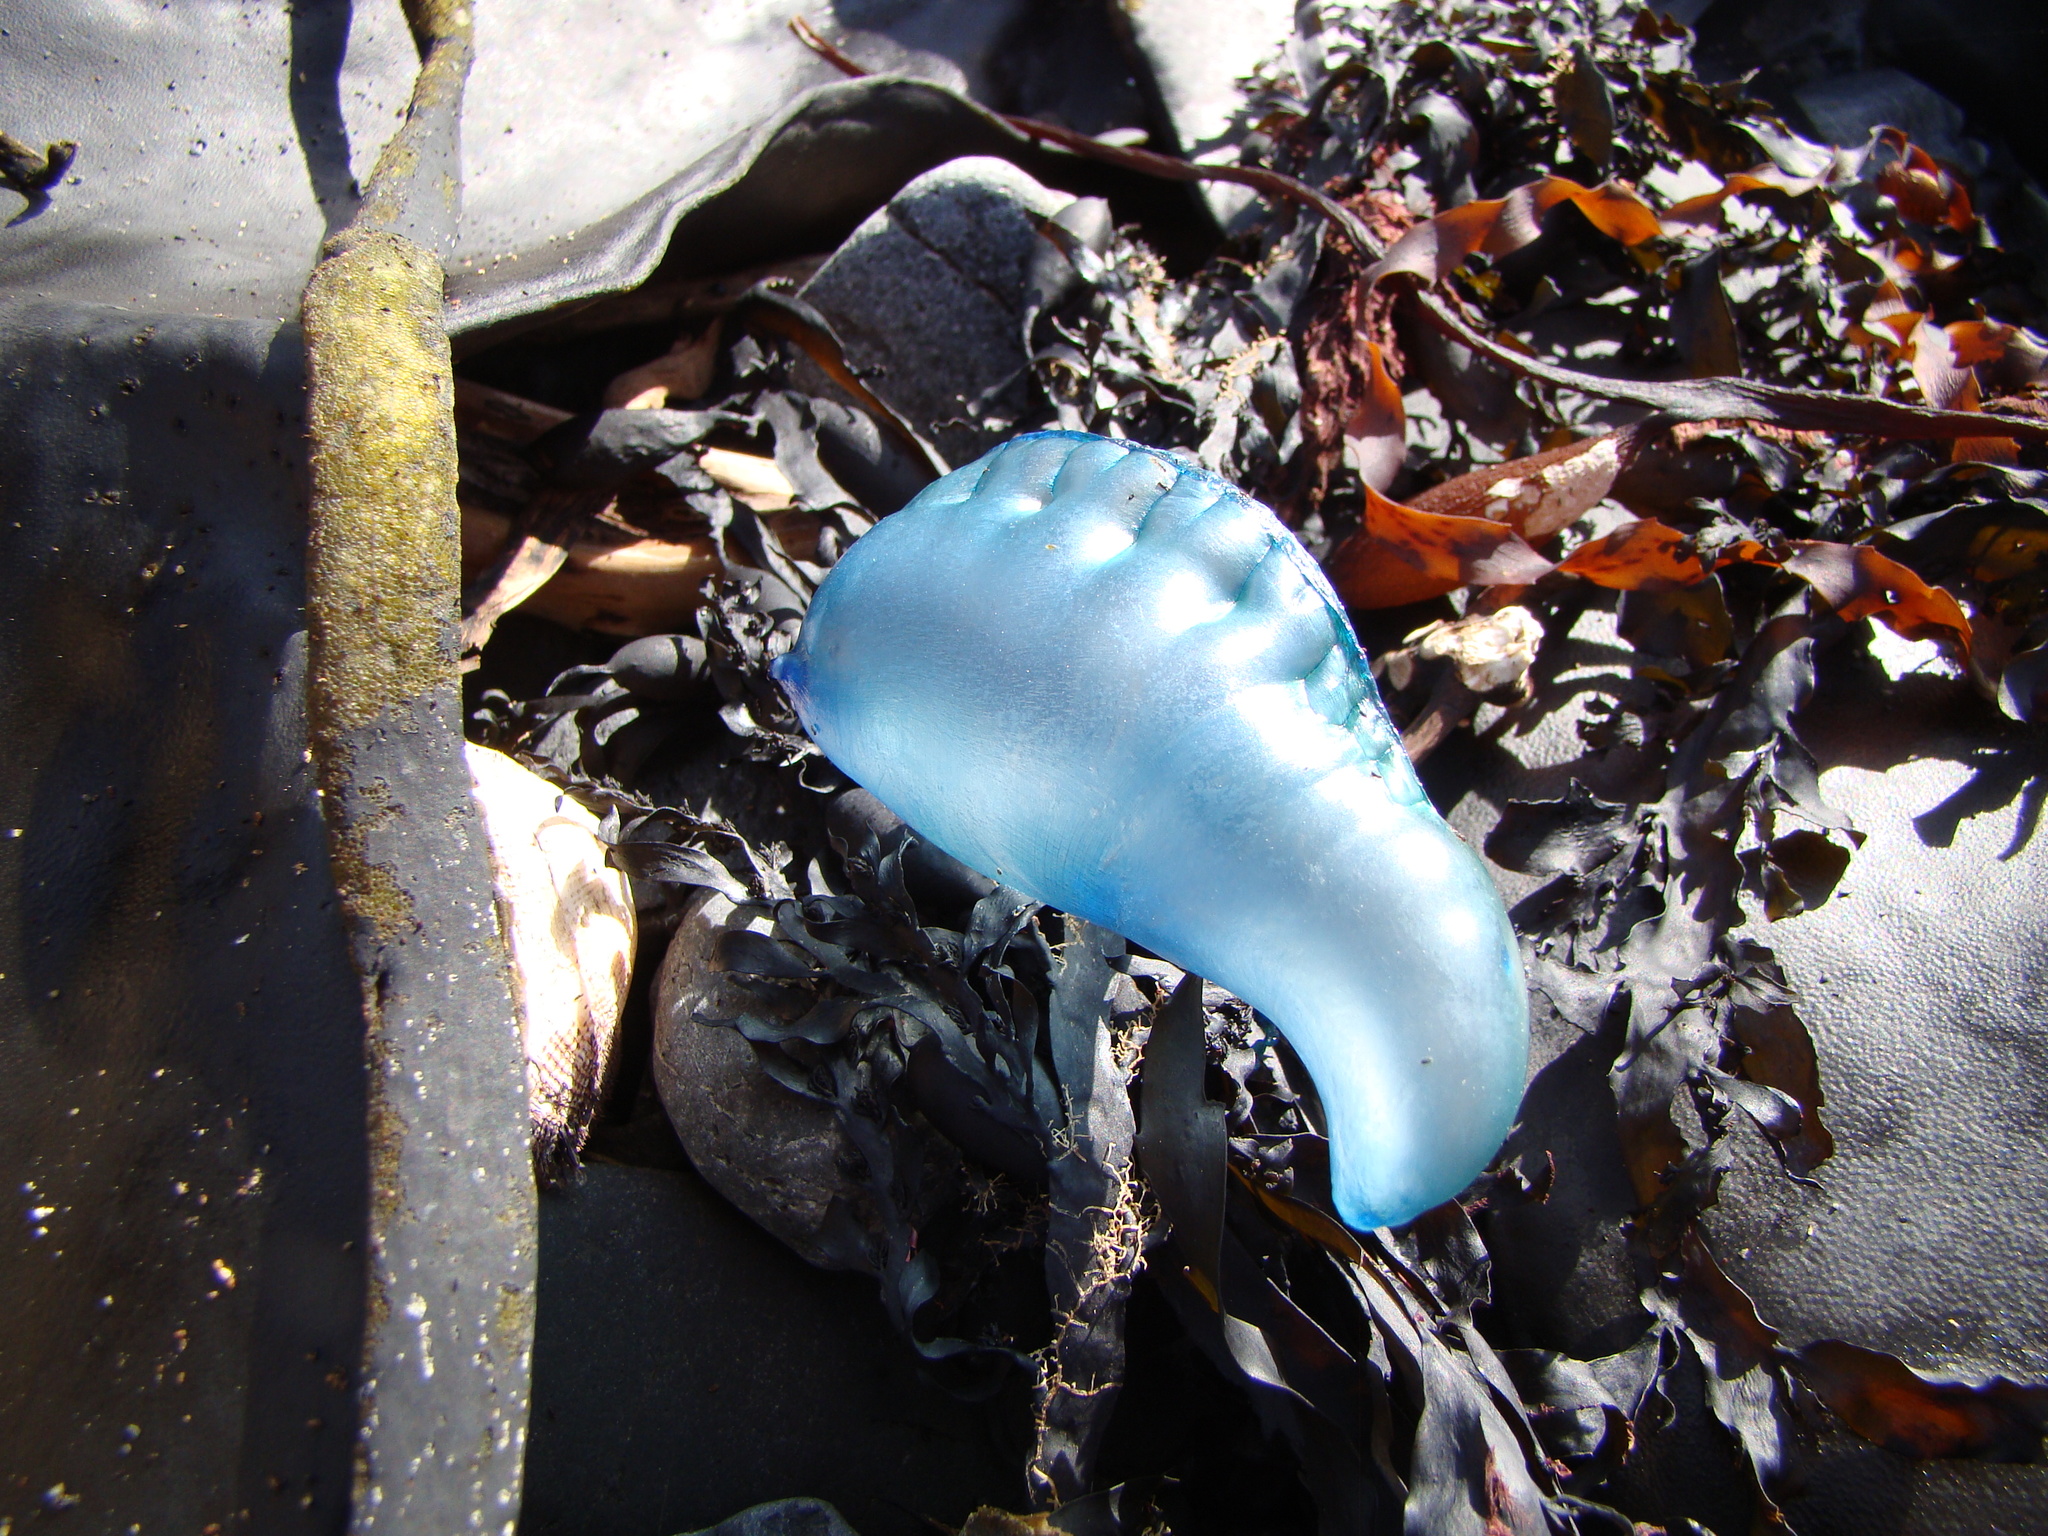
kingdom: Animalia
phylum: Cnidaria
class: Hydrozoa
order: Siphonophorae
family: Physaliidae
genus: Physalia
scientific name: Physalia physalis
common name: Portuguese man-of-war
